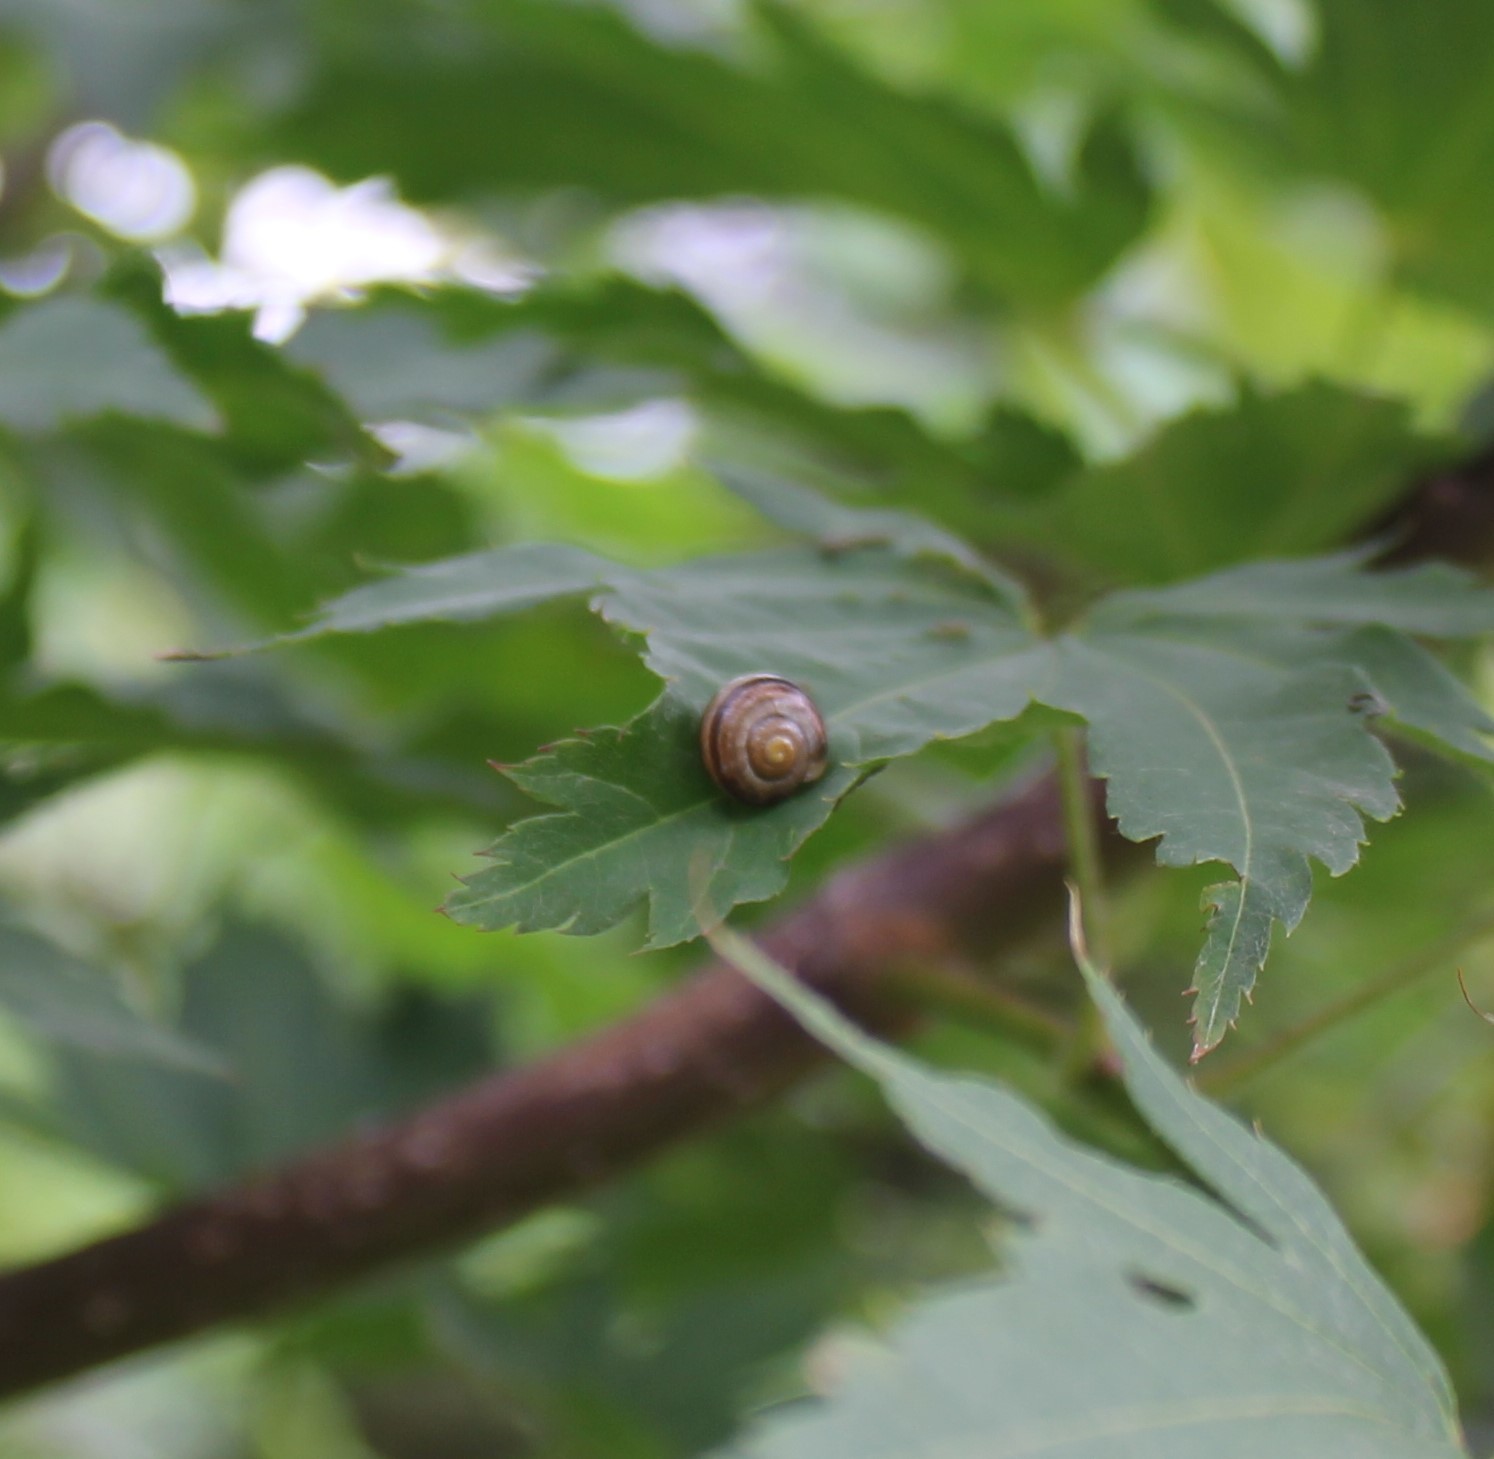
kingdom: Animalia
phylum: Mollusca
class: Gastropoda
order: Stylommatophora
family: Helicidae
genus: Arianta
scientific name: Arianta arbustorum
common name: Copse snail
